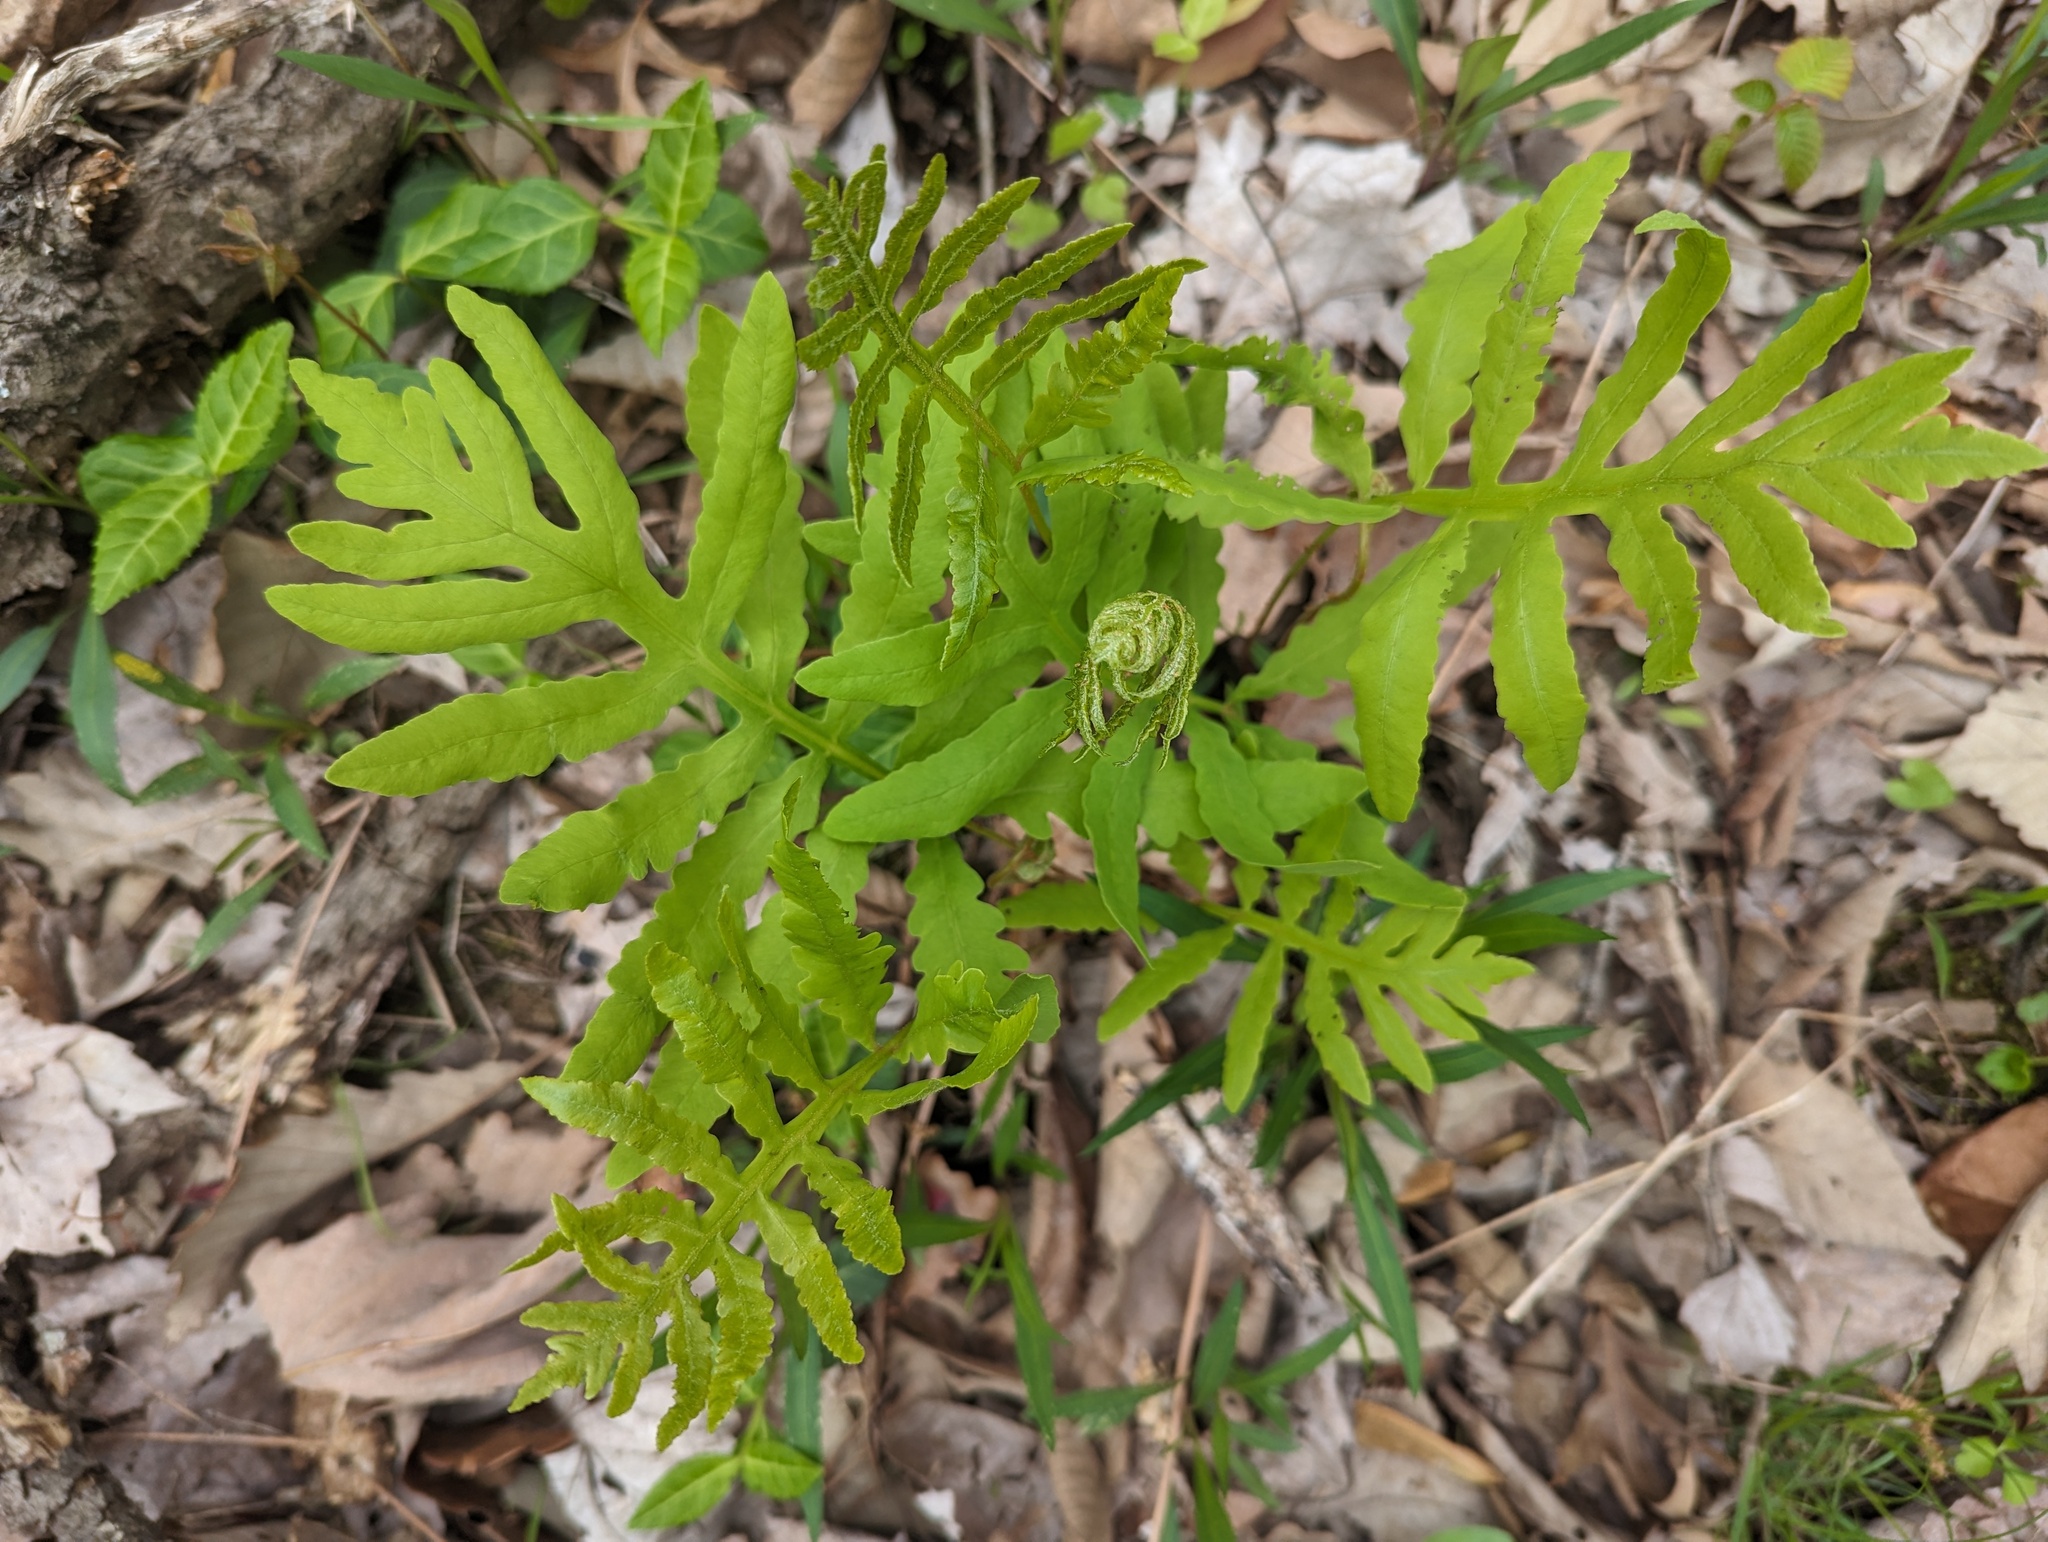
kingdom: Plantae
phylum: Tracheophyta
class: Polypodiopsida
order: Polypodiales
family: Onocleaceae
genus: Onoclea
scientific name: Onoclea sensibilis
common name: Sensitive fern
